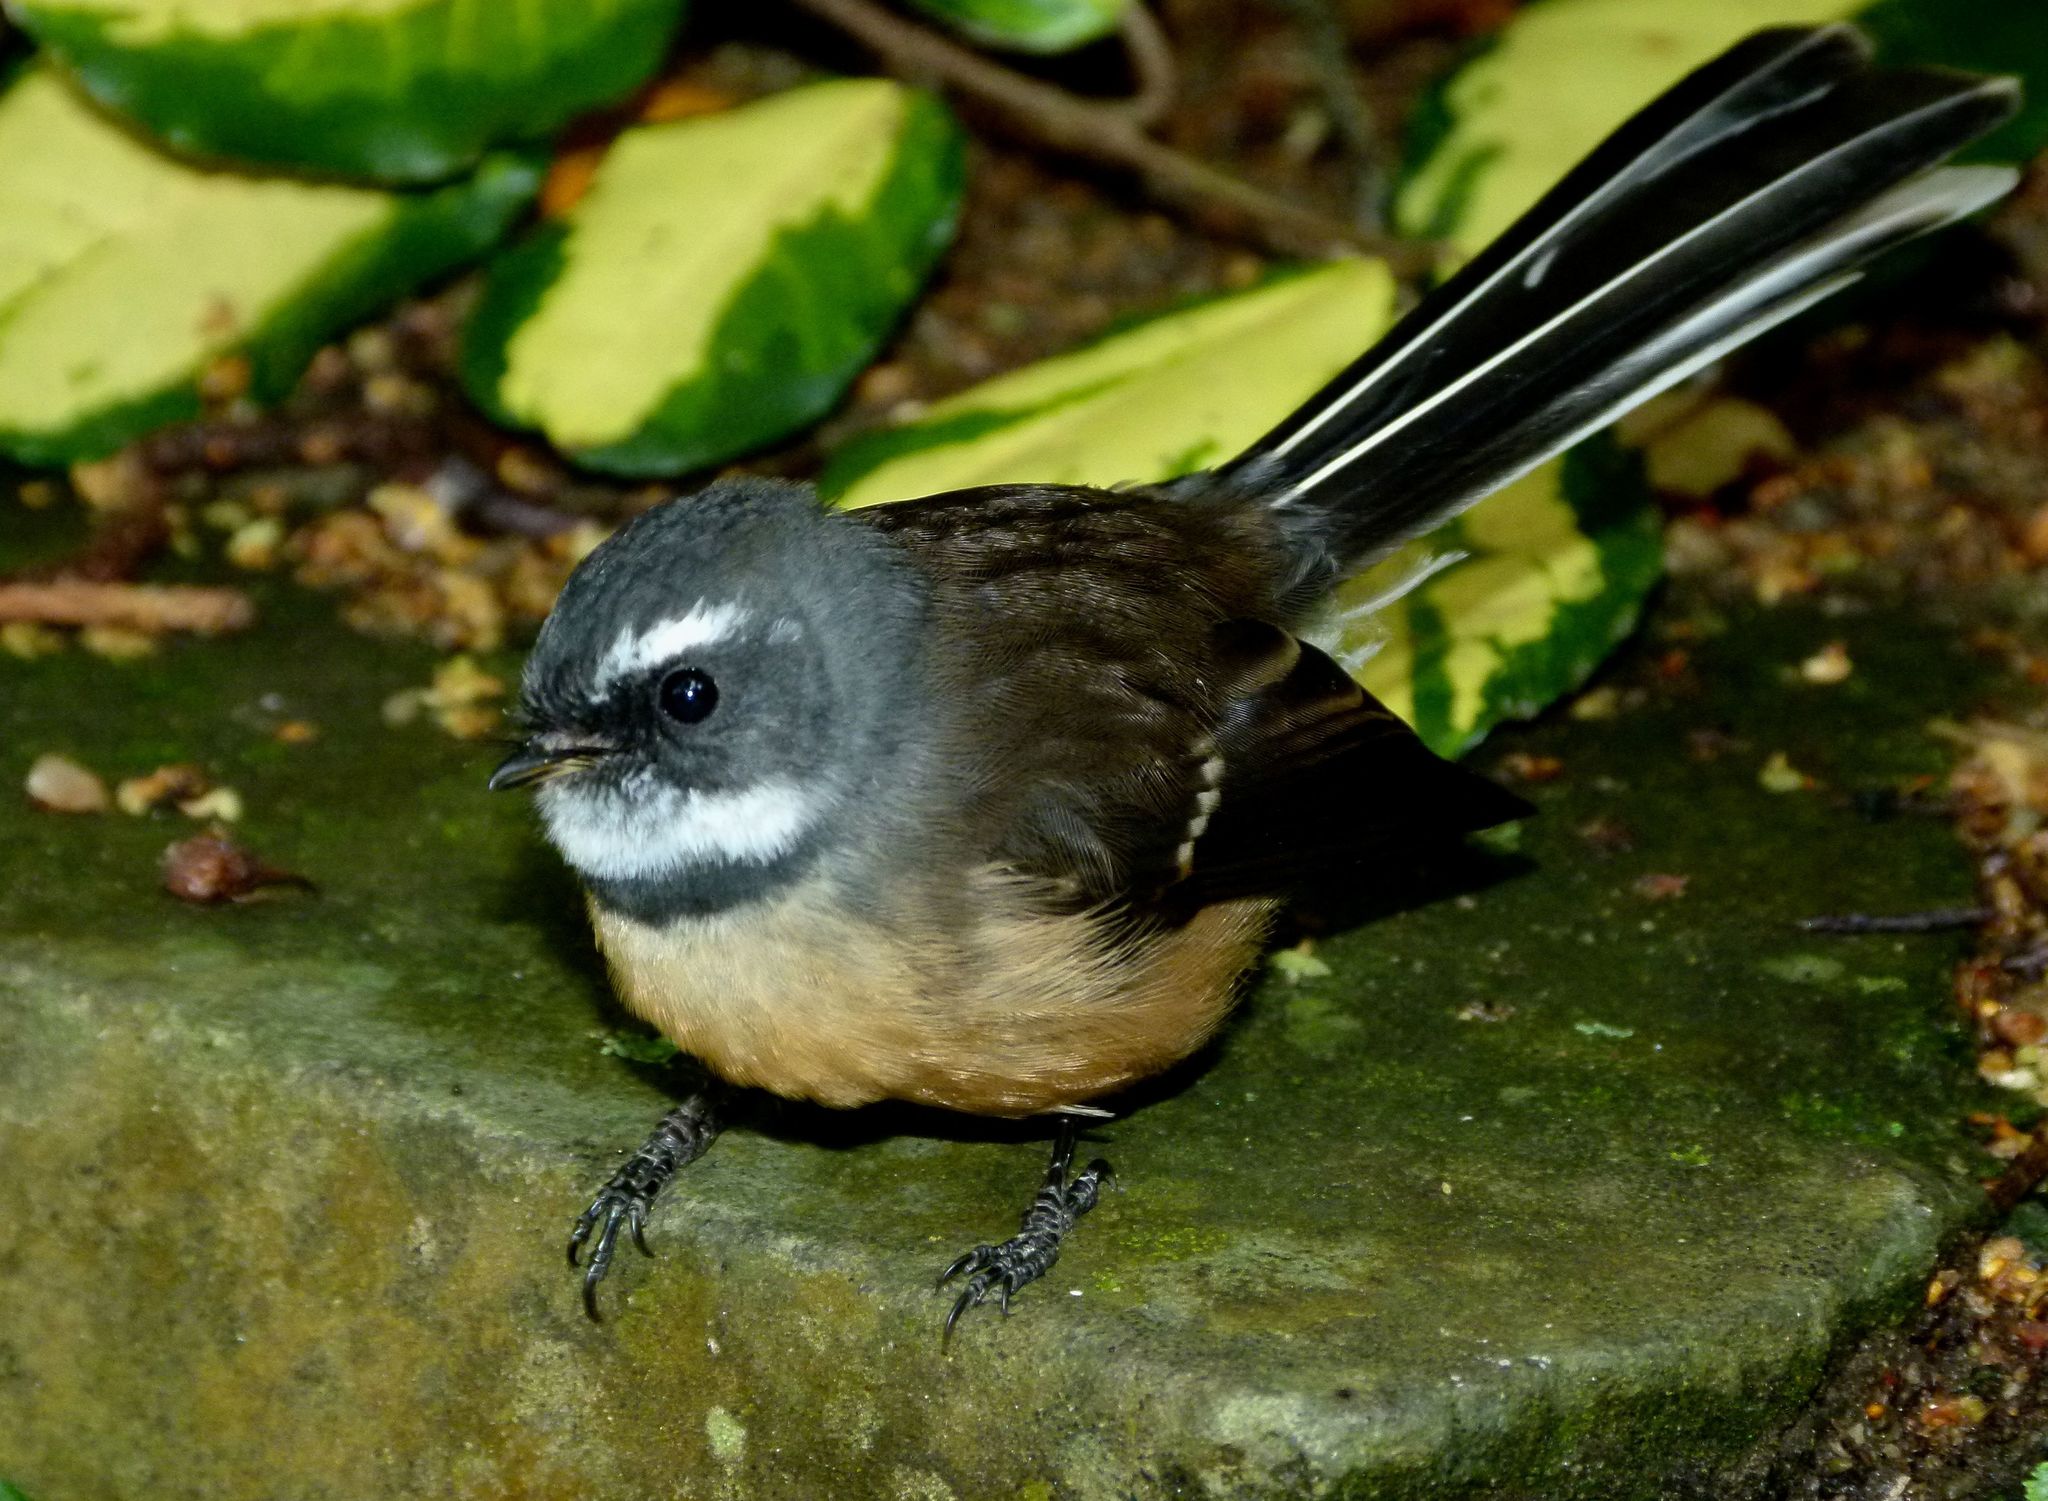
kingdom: Animalia
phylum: Chordata
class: Aves
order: Passeriformes
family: Rhipiduridae
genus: Rhipidura
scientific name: Rhipidura fuliginosa
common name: New zealand fantail
